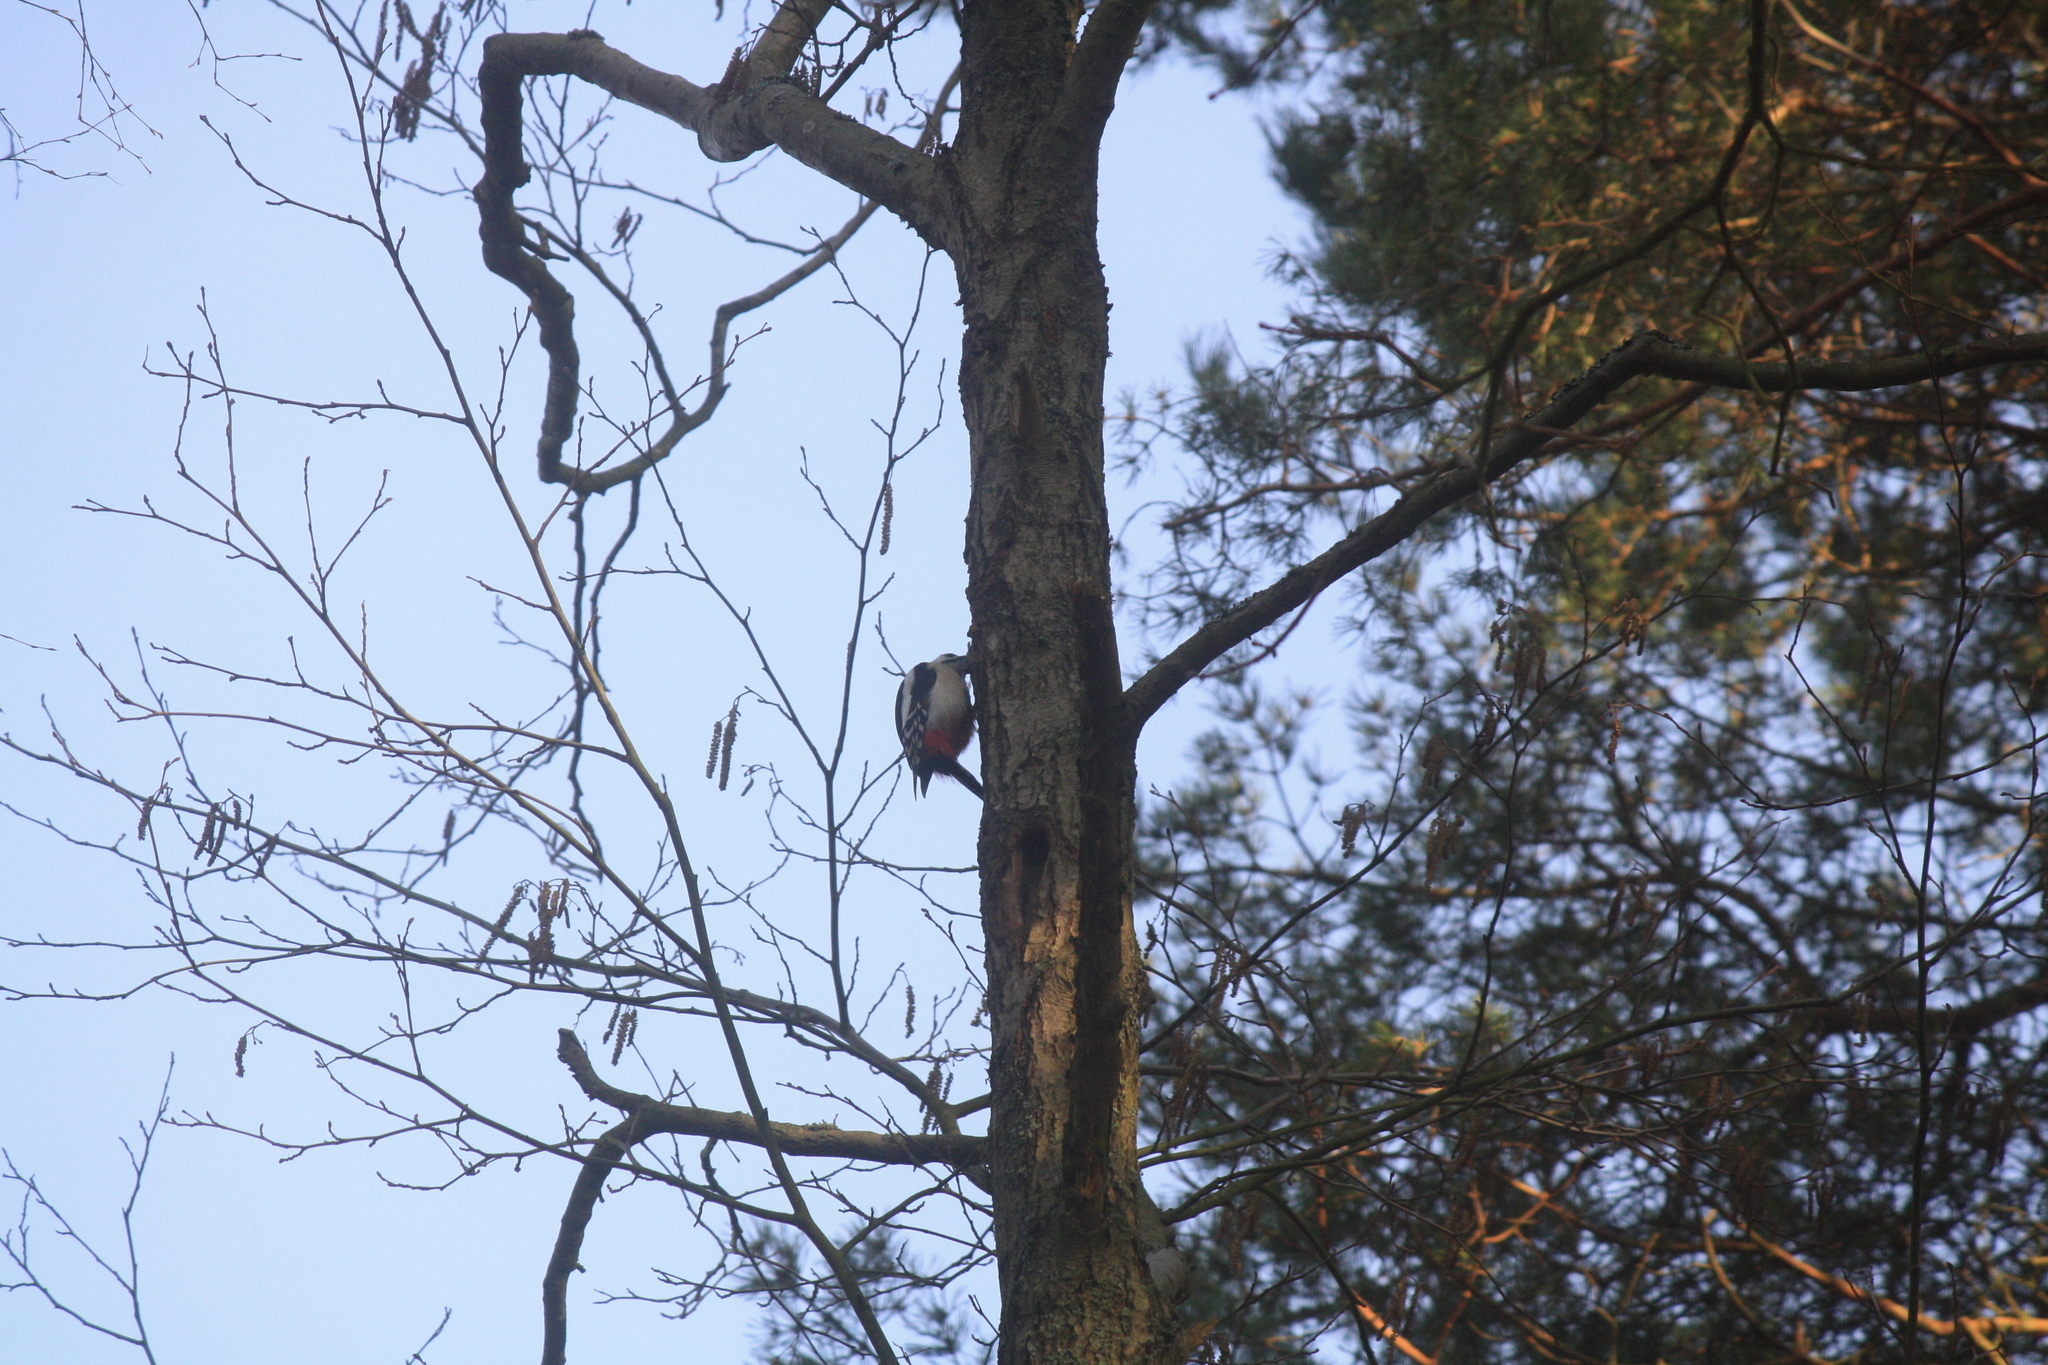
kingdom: Animalia
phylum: Chordata
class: Aves
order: Piciformes
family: Picidae
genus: Dendrocopos
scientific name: Dendrocopos major
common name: Great spotted woodpecker
